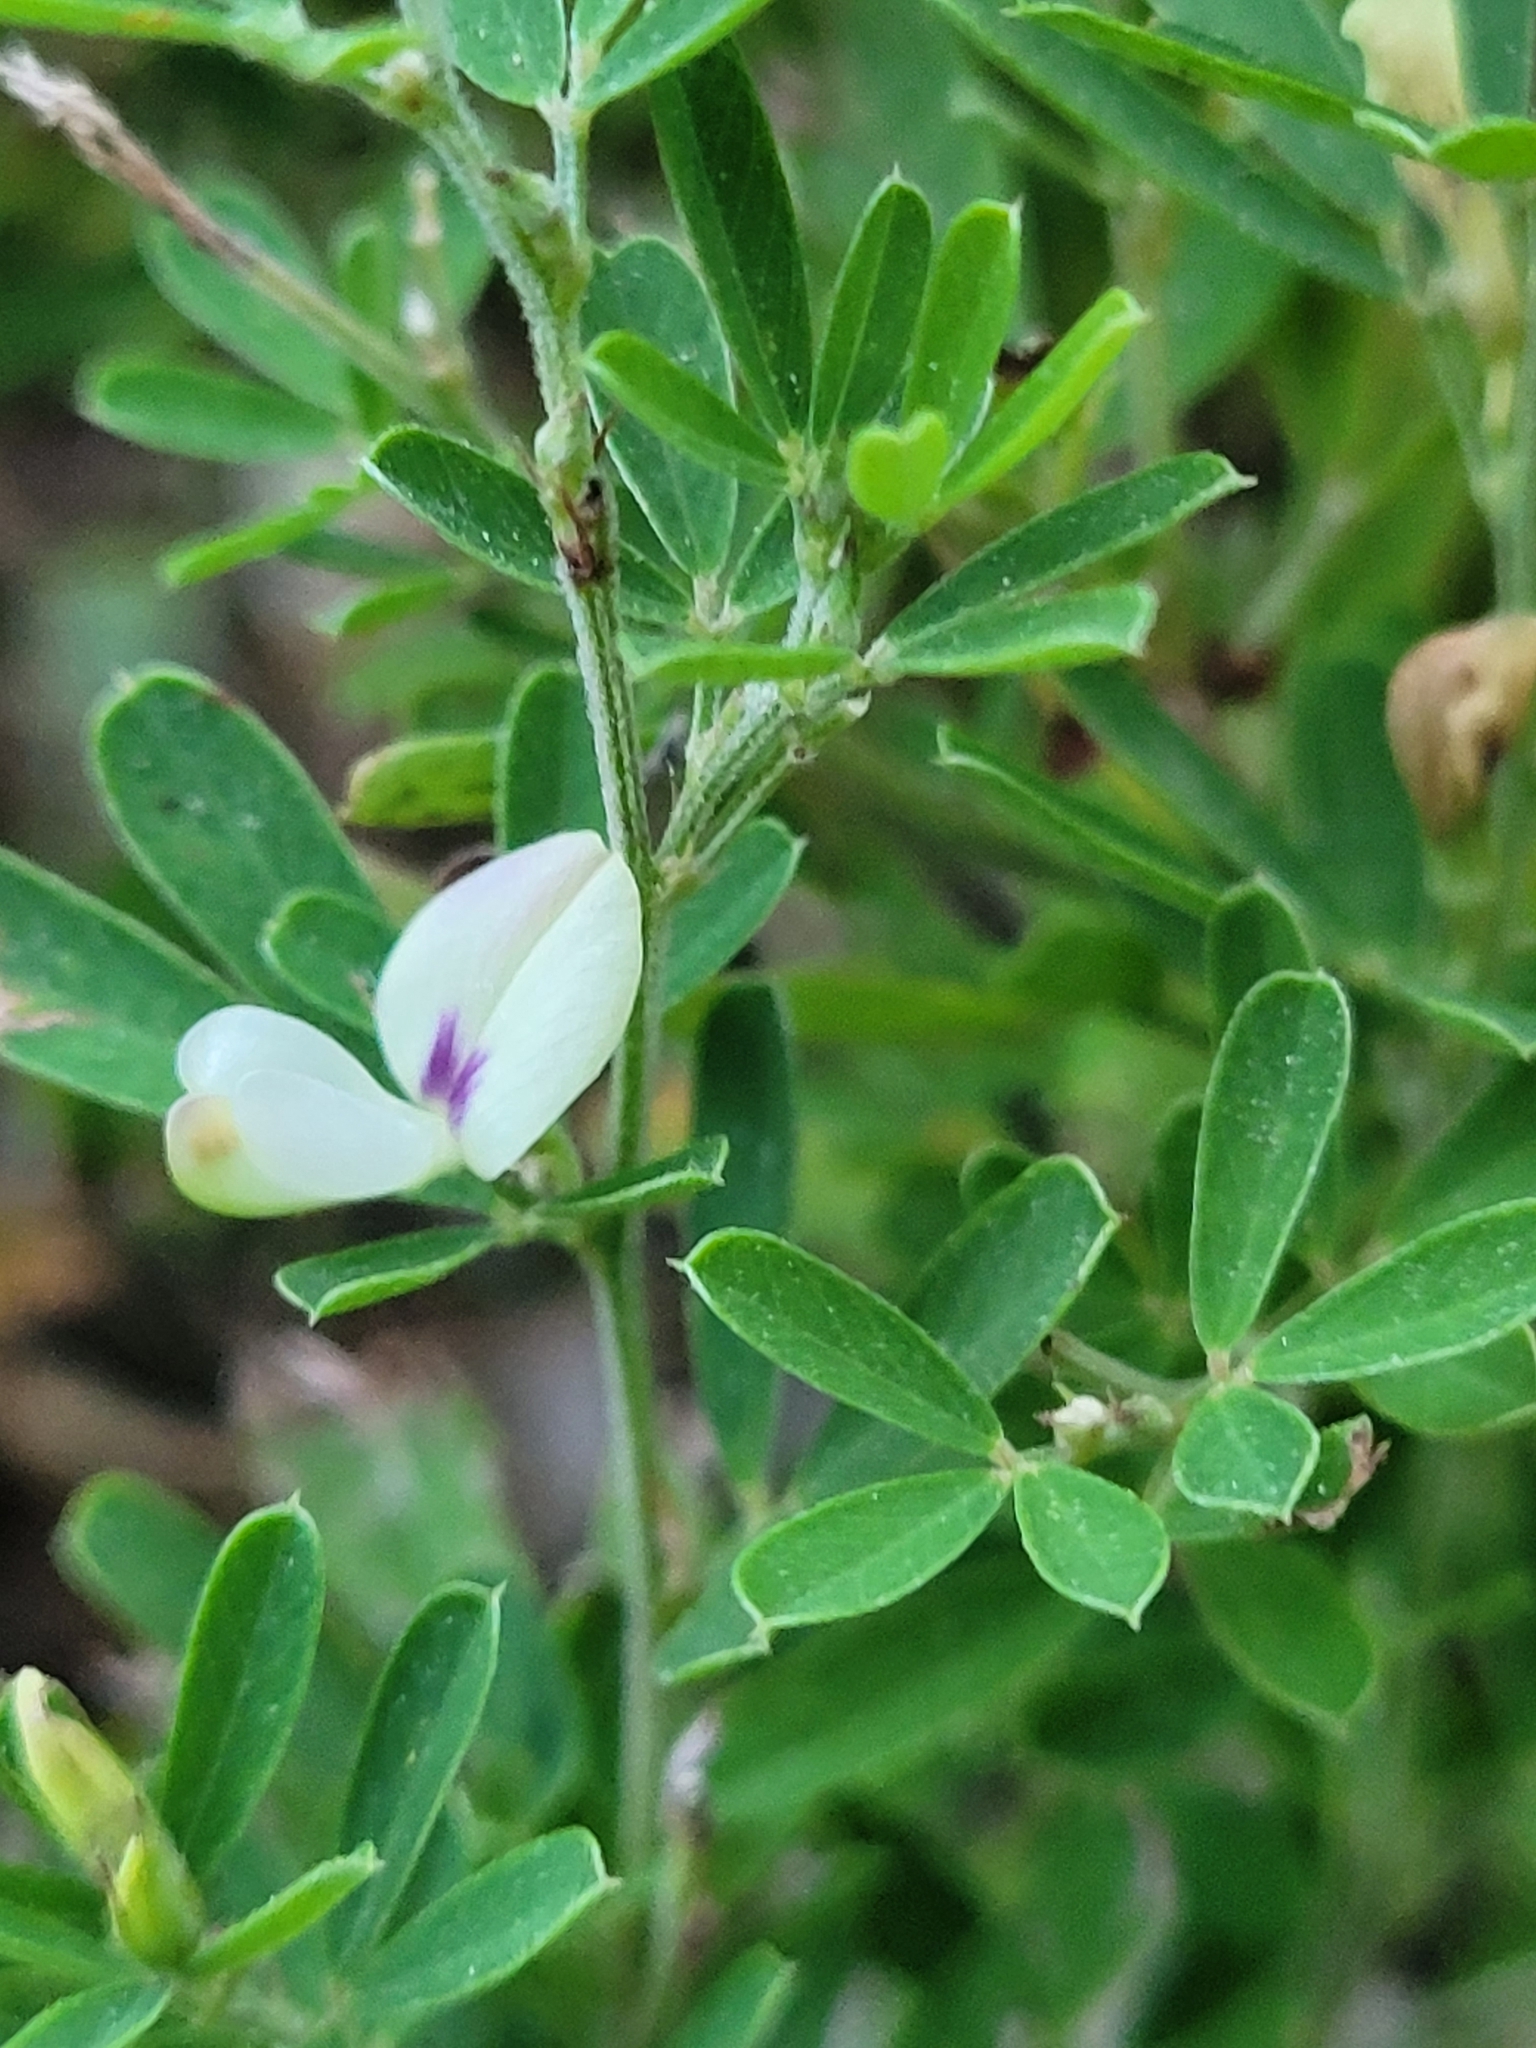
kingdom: Plantae
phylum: Tracheophyta
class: Magnoliopsida
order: Fabales
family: Fabaceae
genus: Lespedeza
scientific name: Lespedeza cuneata
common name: Chinese bush-clover
